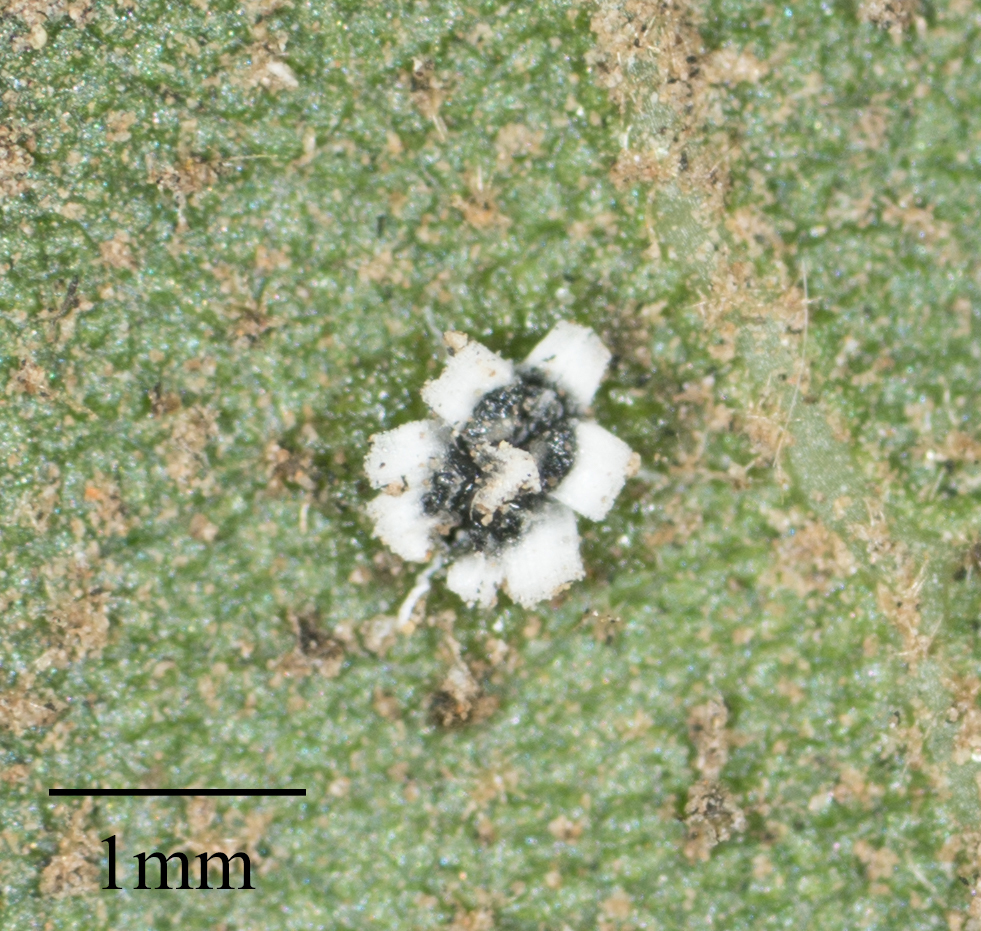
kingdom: Animalia
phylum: Arthropoda
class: Insecta
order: Hemiptera
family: Aleyrodidae
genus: Aleuroplatus
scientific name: Aleuroplatus coronata
